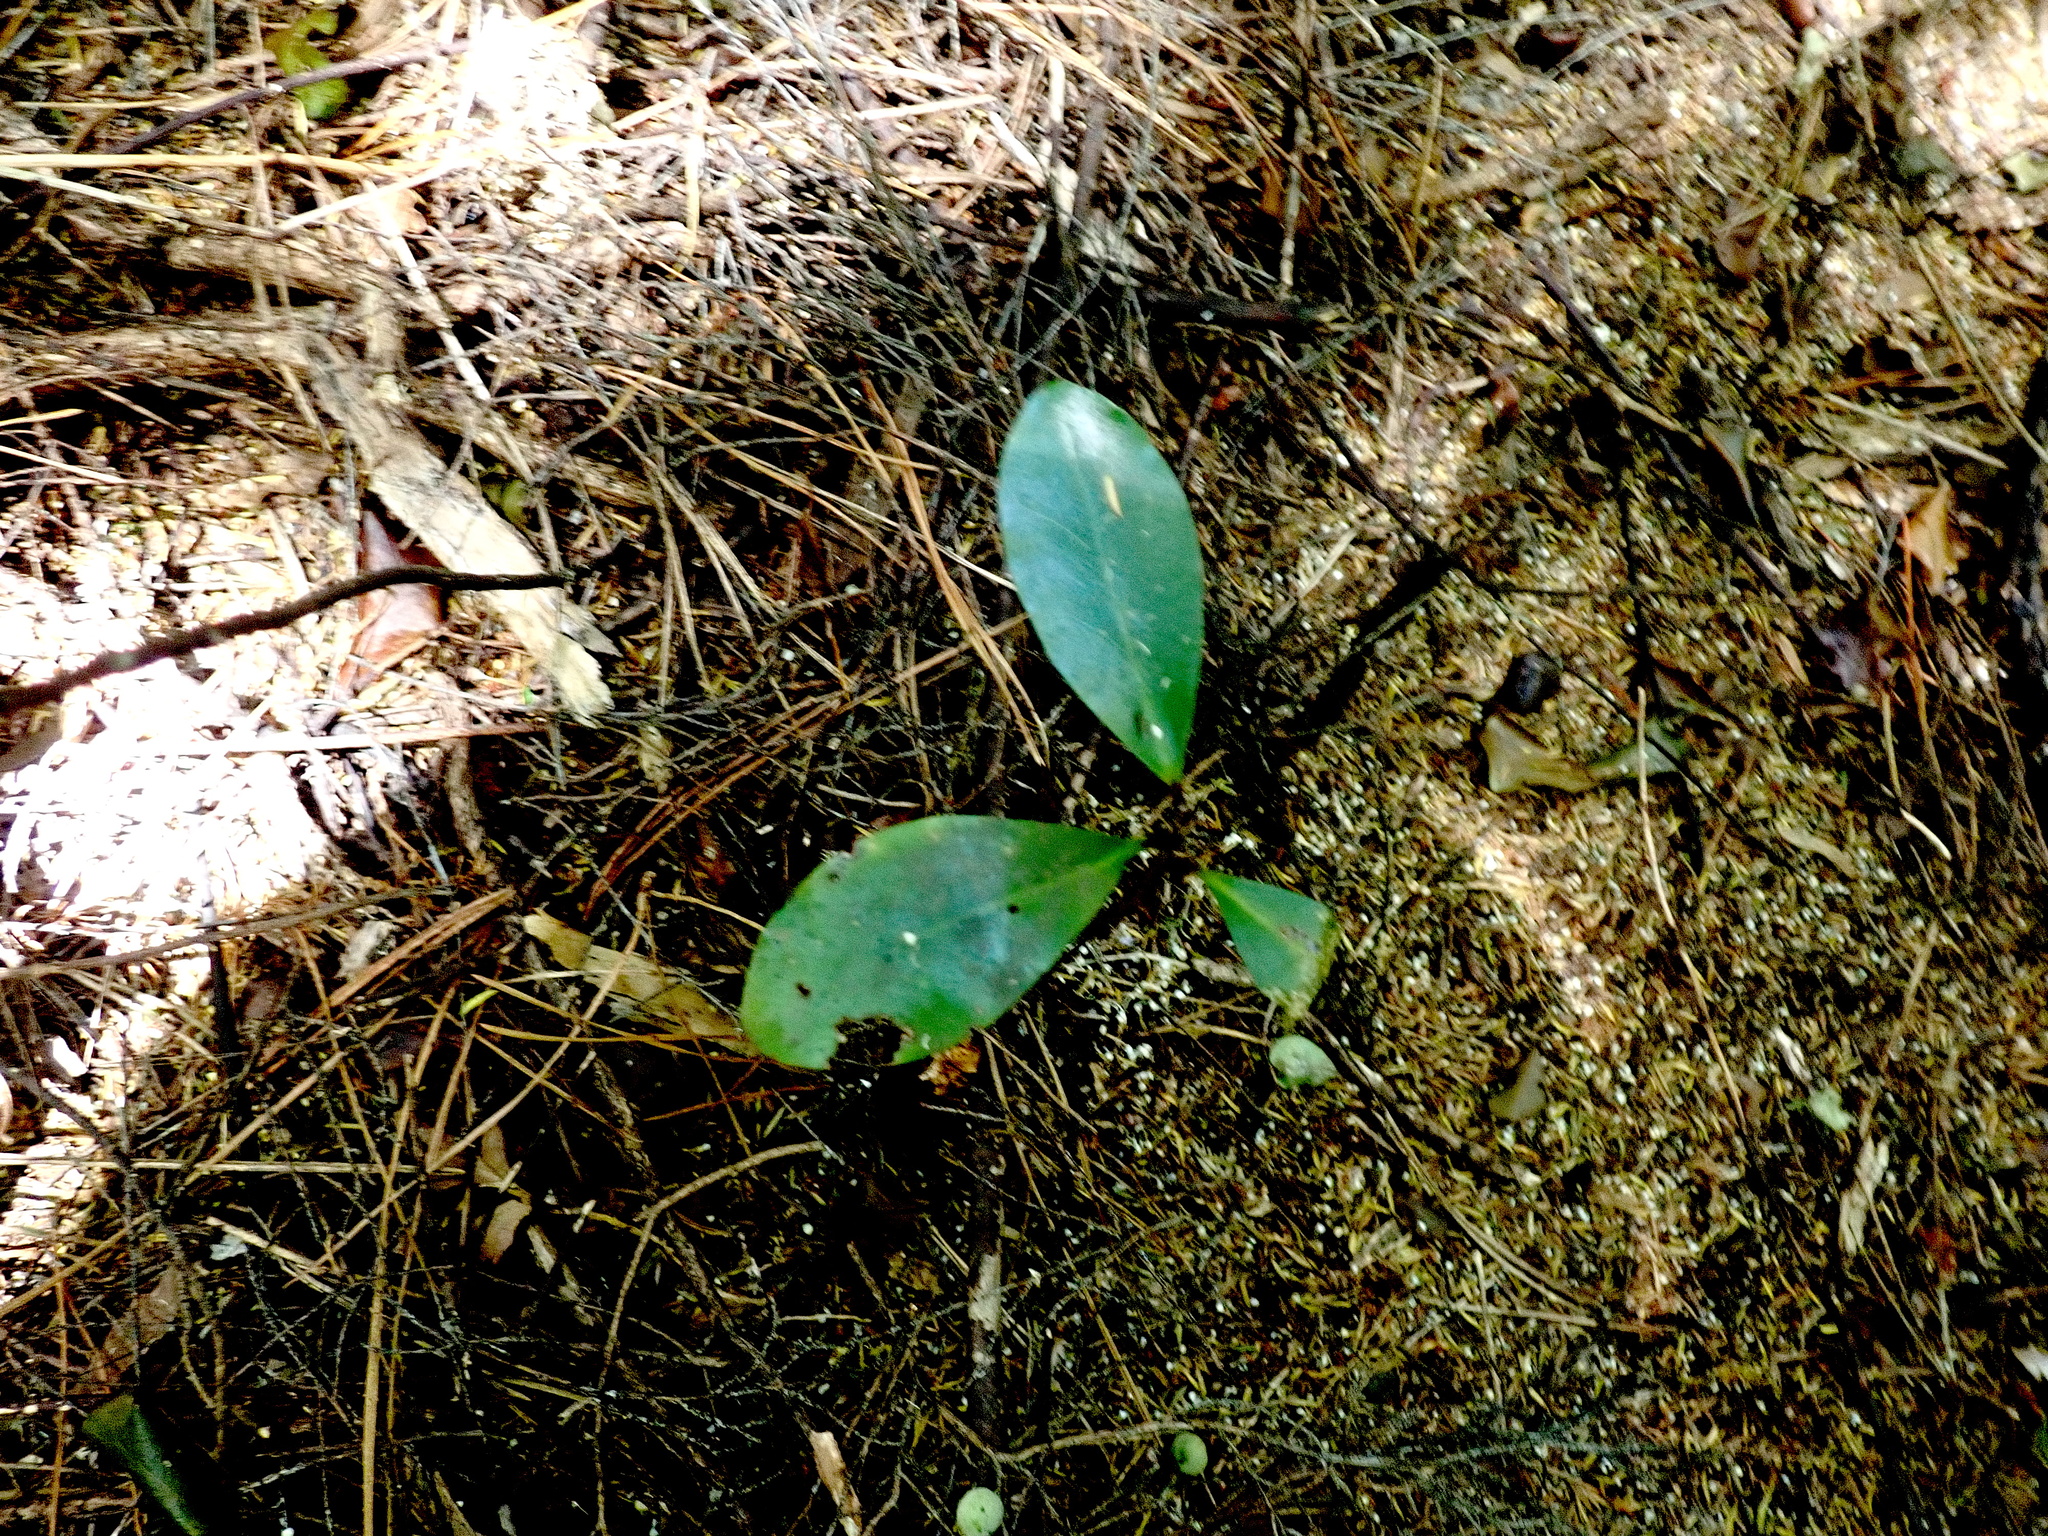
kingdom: Plantae
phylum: Tracheophyta
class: Magnoliopsida
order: Cucurbitales
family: Corynocarpaceae
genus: Corynocarpus
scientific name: Corynocarpus laevigatus
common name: New zealand laurel
